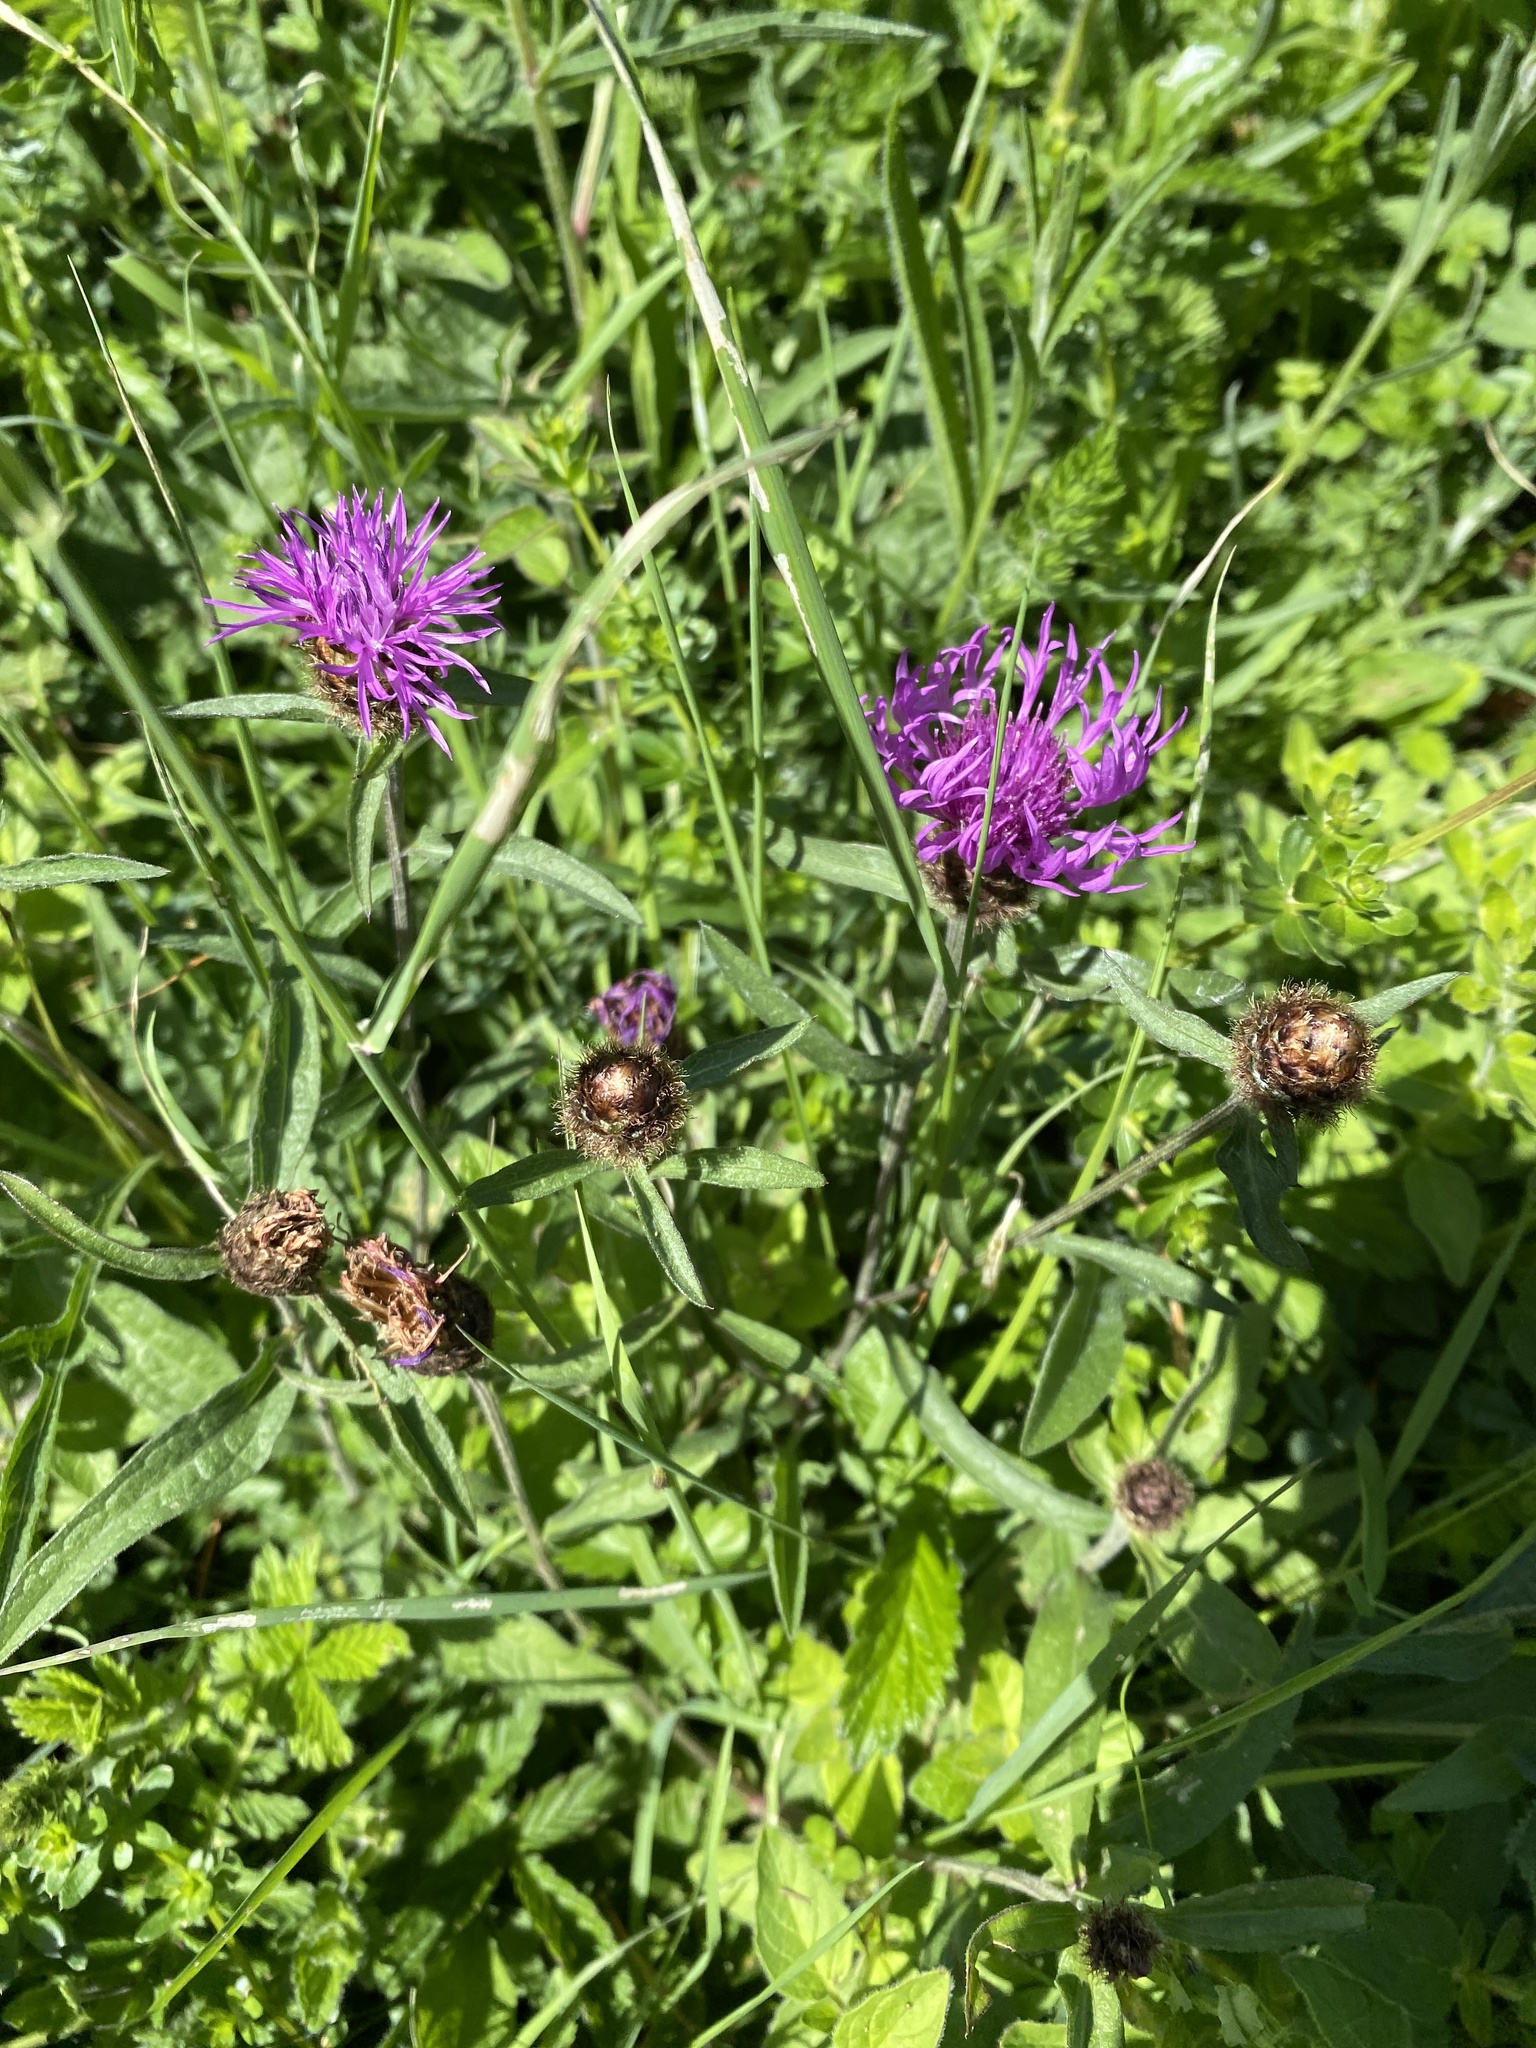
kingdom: Plantae
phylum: Tracheophyta
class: Magnoliopsida
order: Asterales
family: Asteraceae
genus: Centaurea
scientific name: Centaurea nigra
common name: Lesser knapweed
